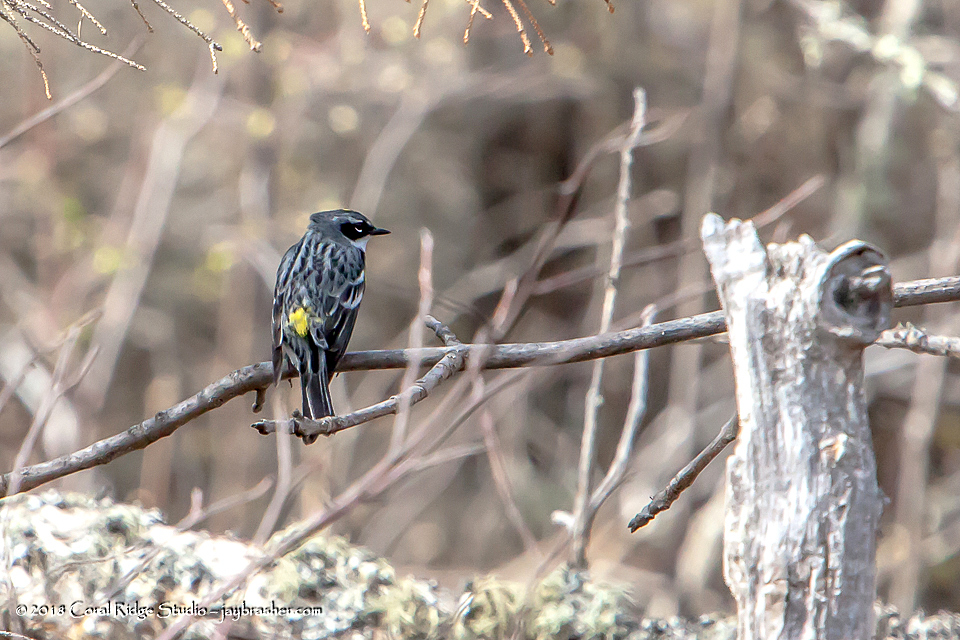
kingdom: Animalia
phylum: Chordata
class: Aves
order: Passeriformes
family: Parulidae
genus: Setophaga
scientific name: Setophaga coronata
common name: Myrtle warbler
